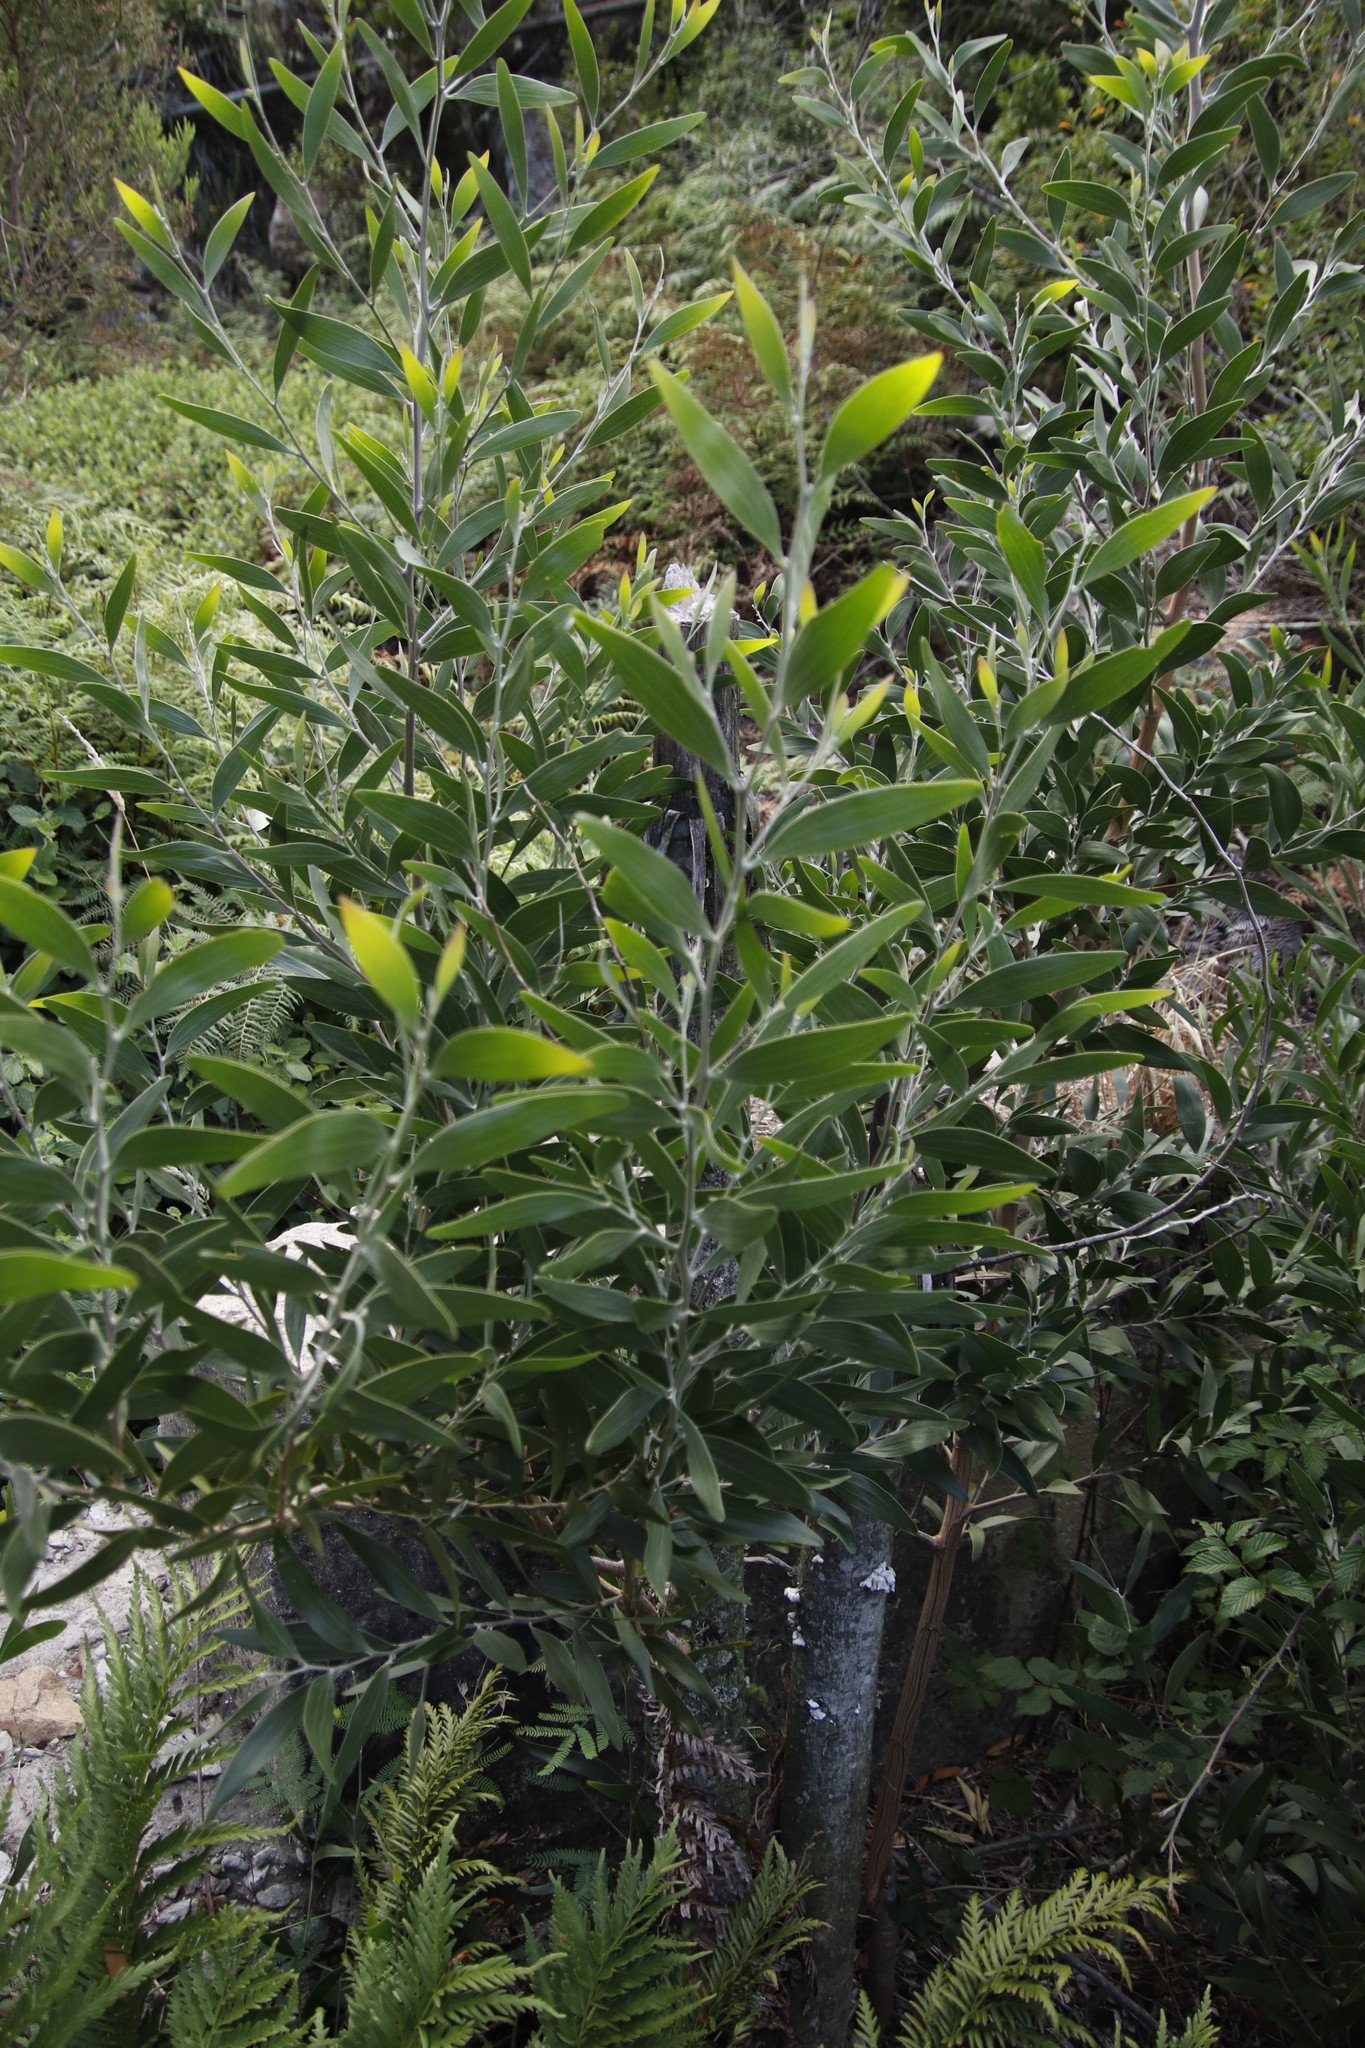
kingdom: Plantae
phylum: Tracheophyta
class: Magnoliopsida
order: Fabales
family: Fabaceae
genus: Acacia
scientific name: Acacia melanoxylon
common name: Blackwood
